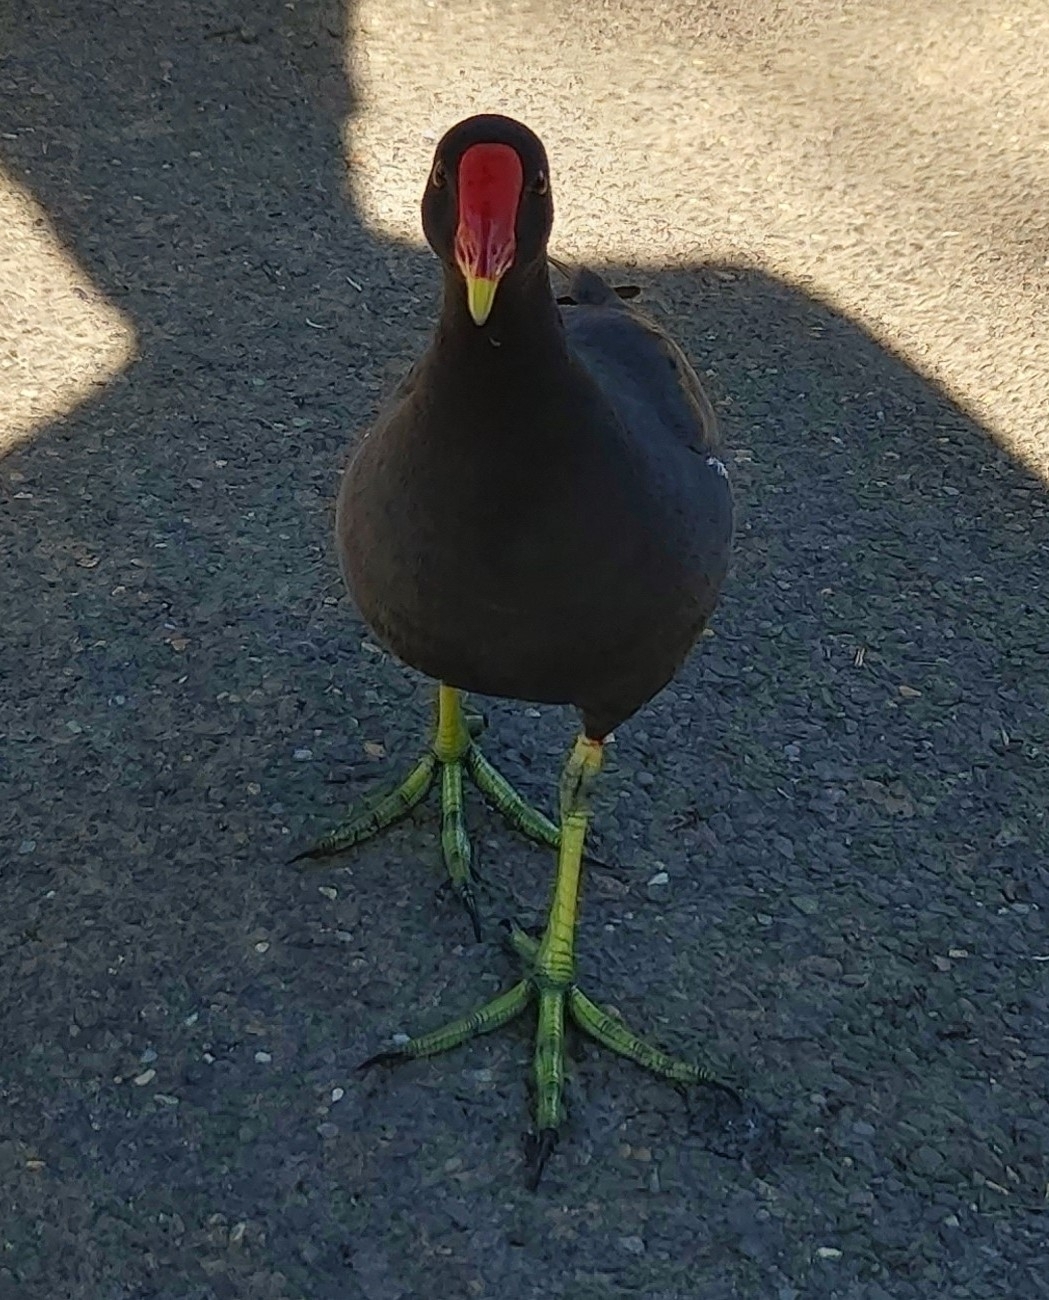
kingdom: Animalia
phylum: Chordata
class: Aves
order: Gruiformes
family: Rallidae
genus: Gallinula
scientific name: Gallinula chloropus
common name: Common moorhen
